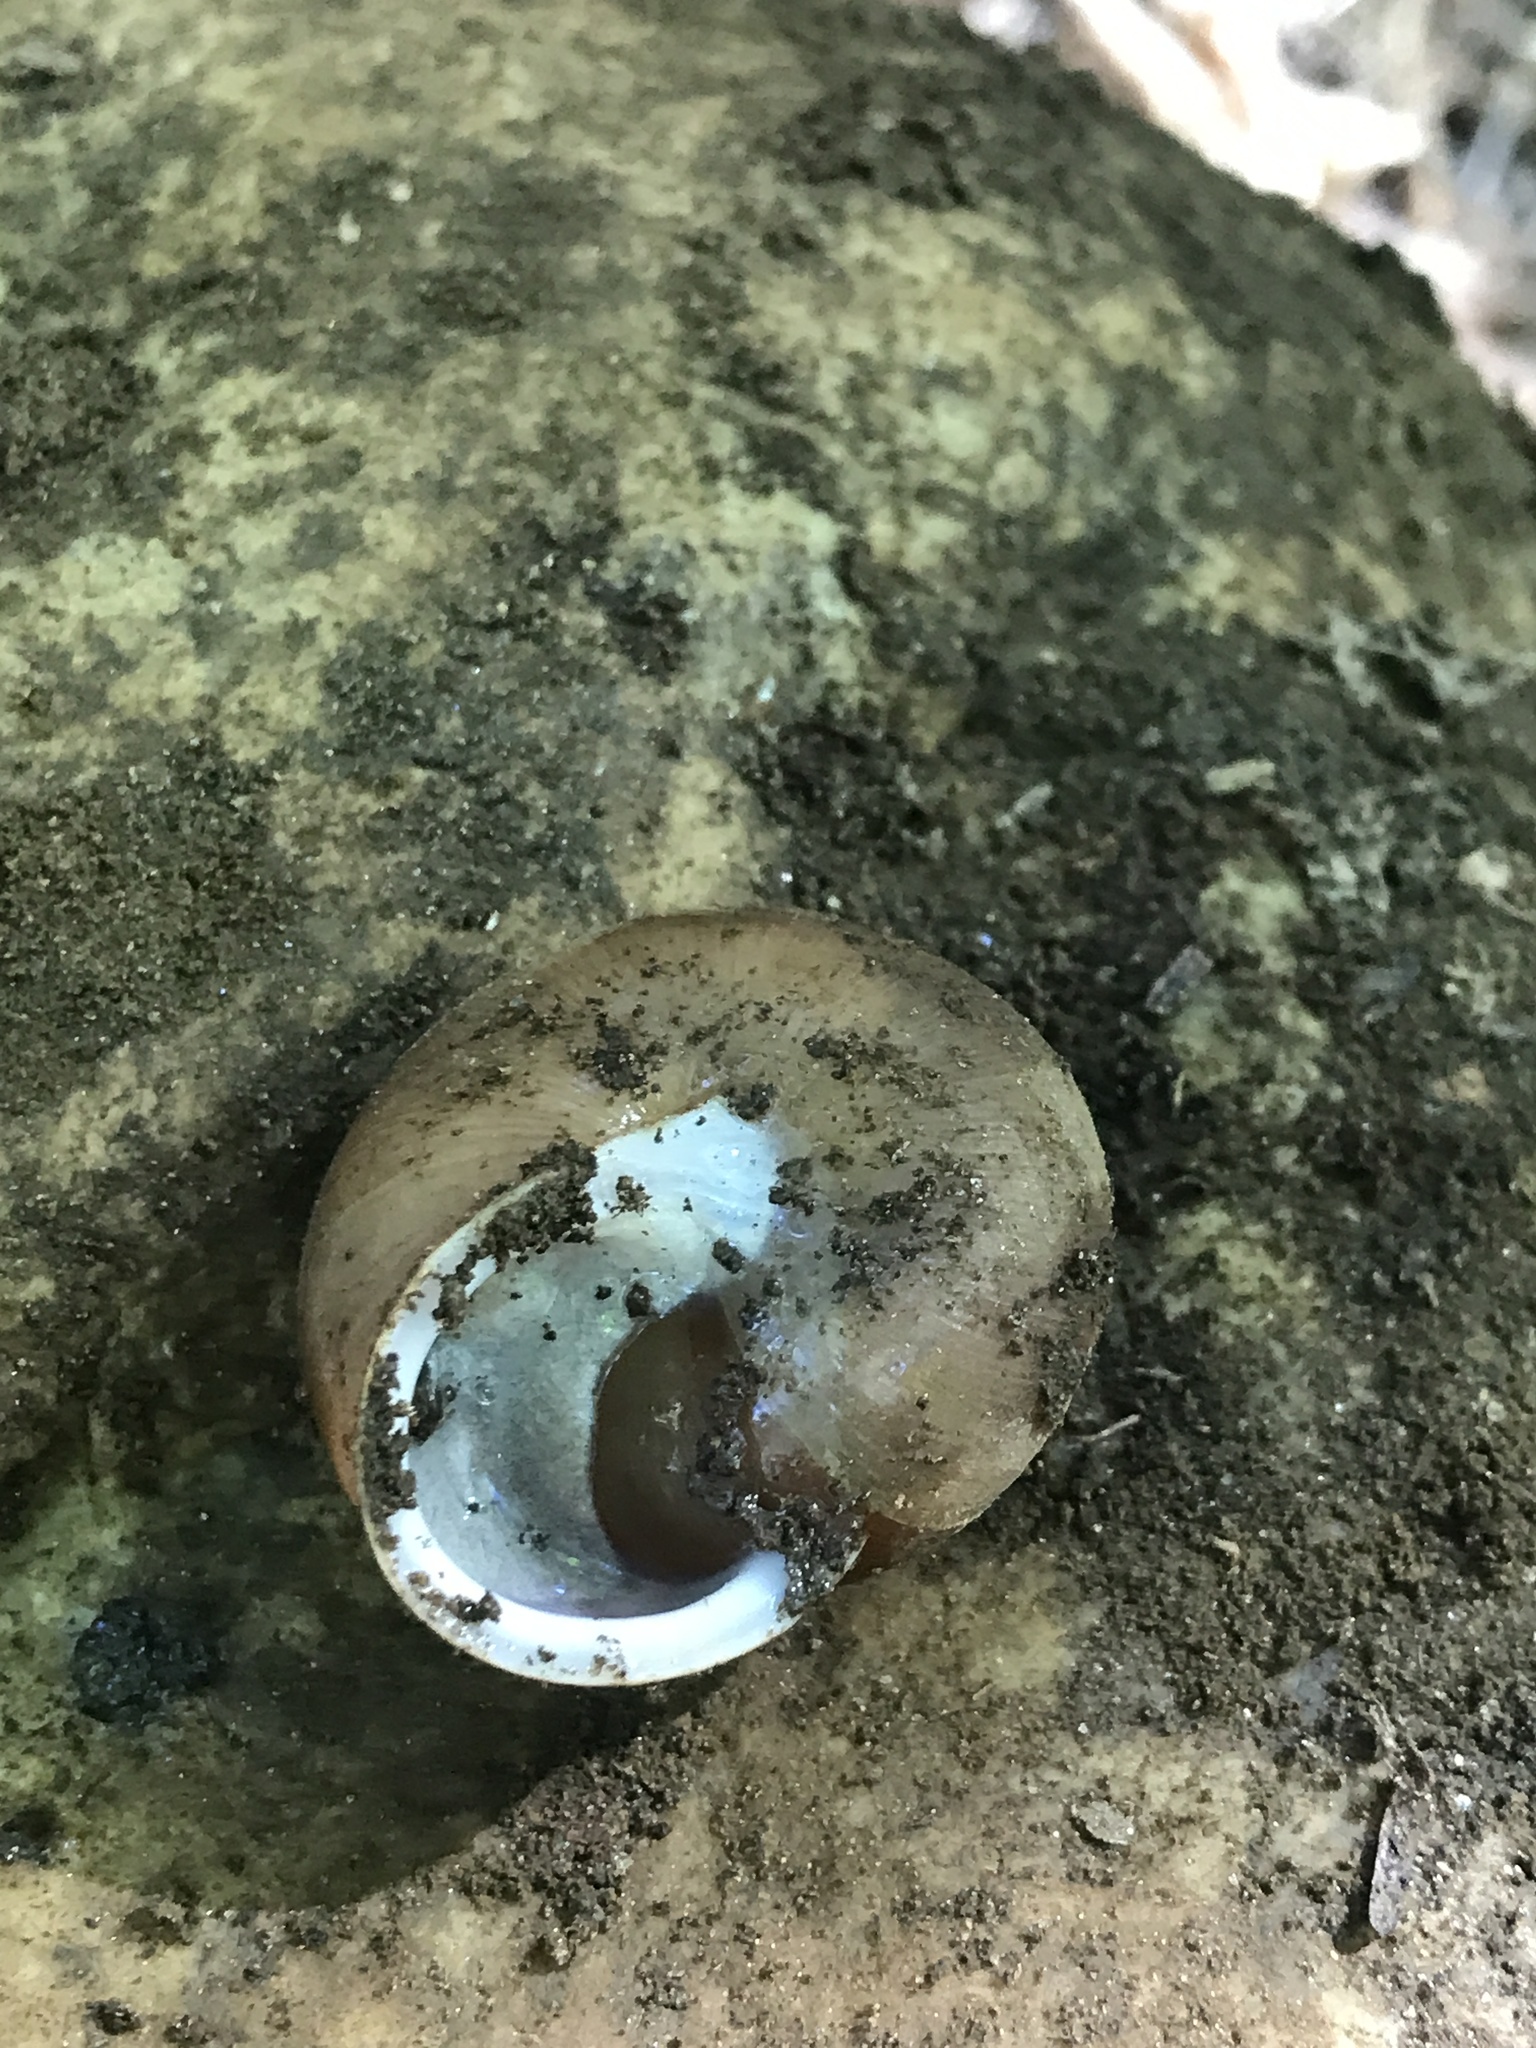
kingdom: Animalia
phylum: Mollusca
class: Gastropoda
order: Stylommatophora
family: Polygyridae
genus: Neohelix
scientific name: Neohelix albolabris
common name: Eastern whitelip
